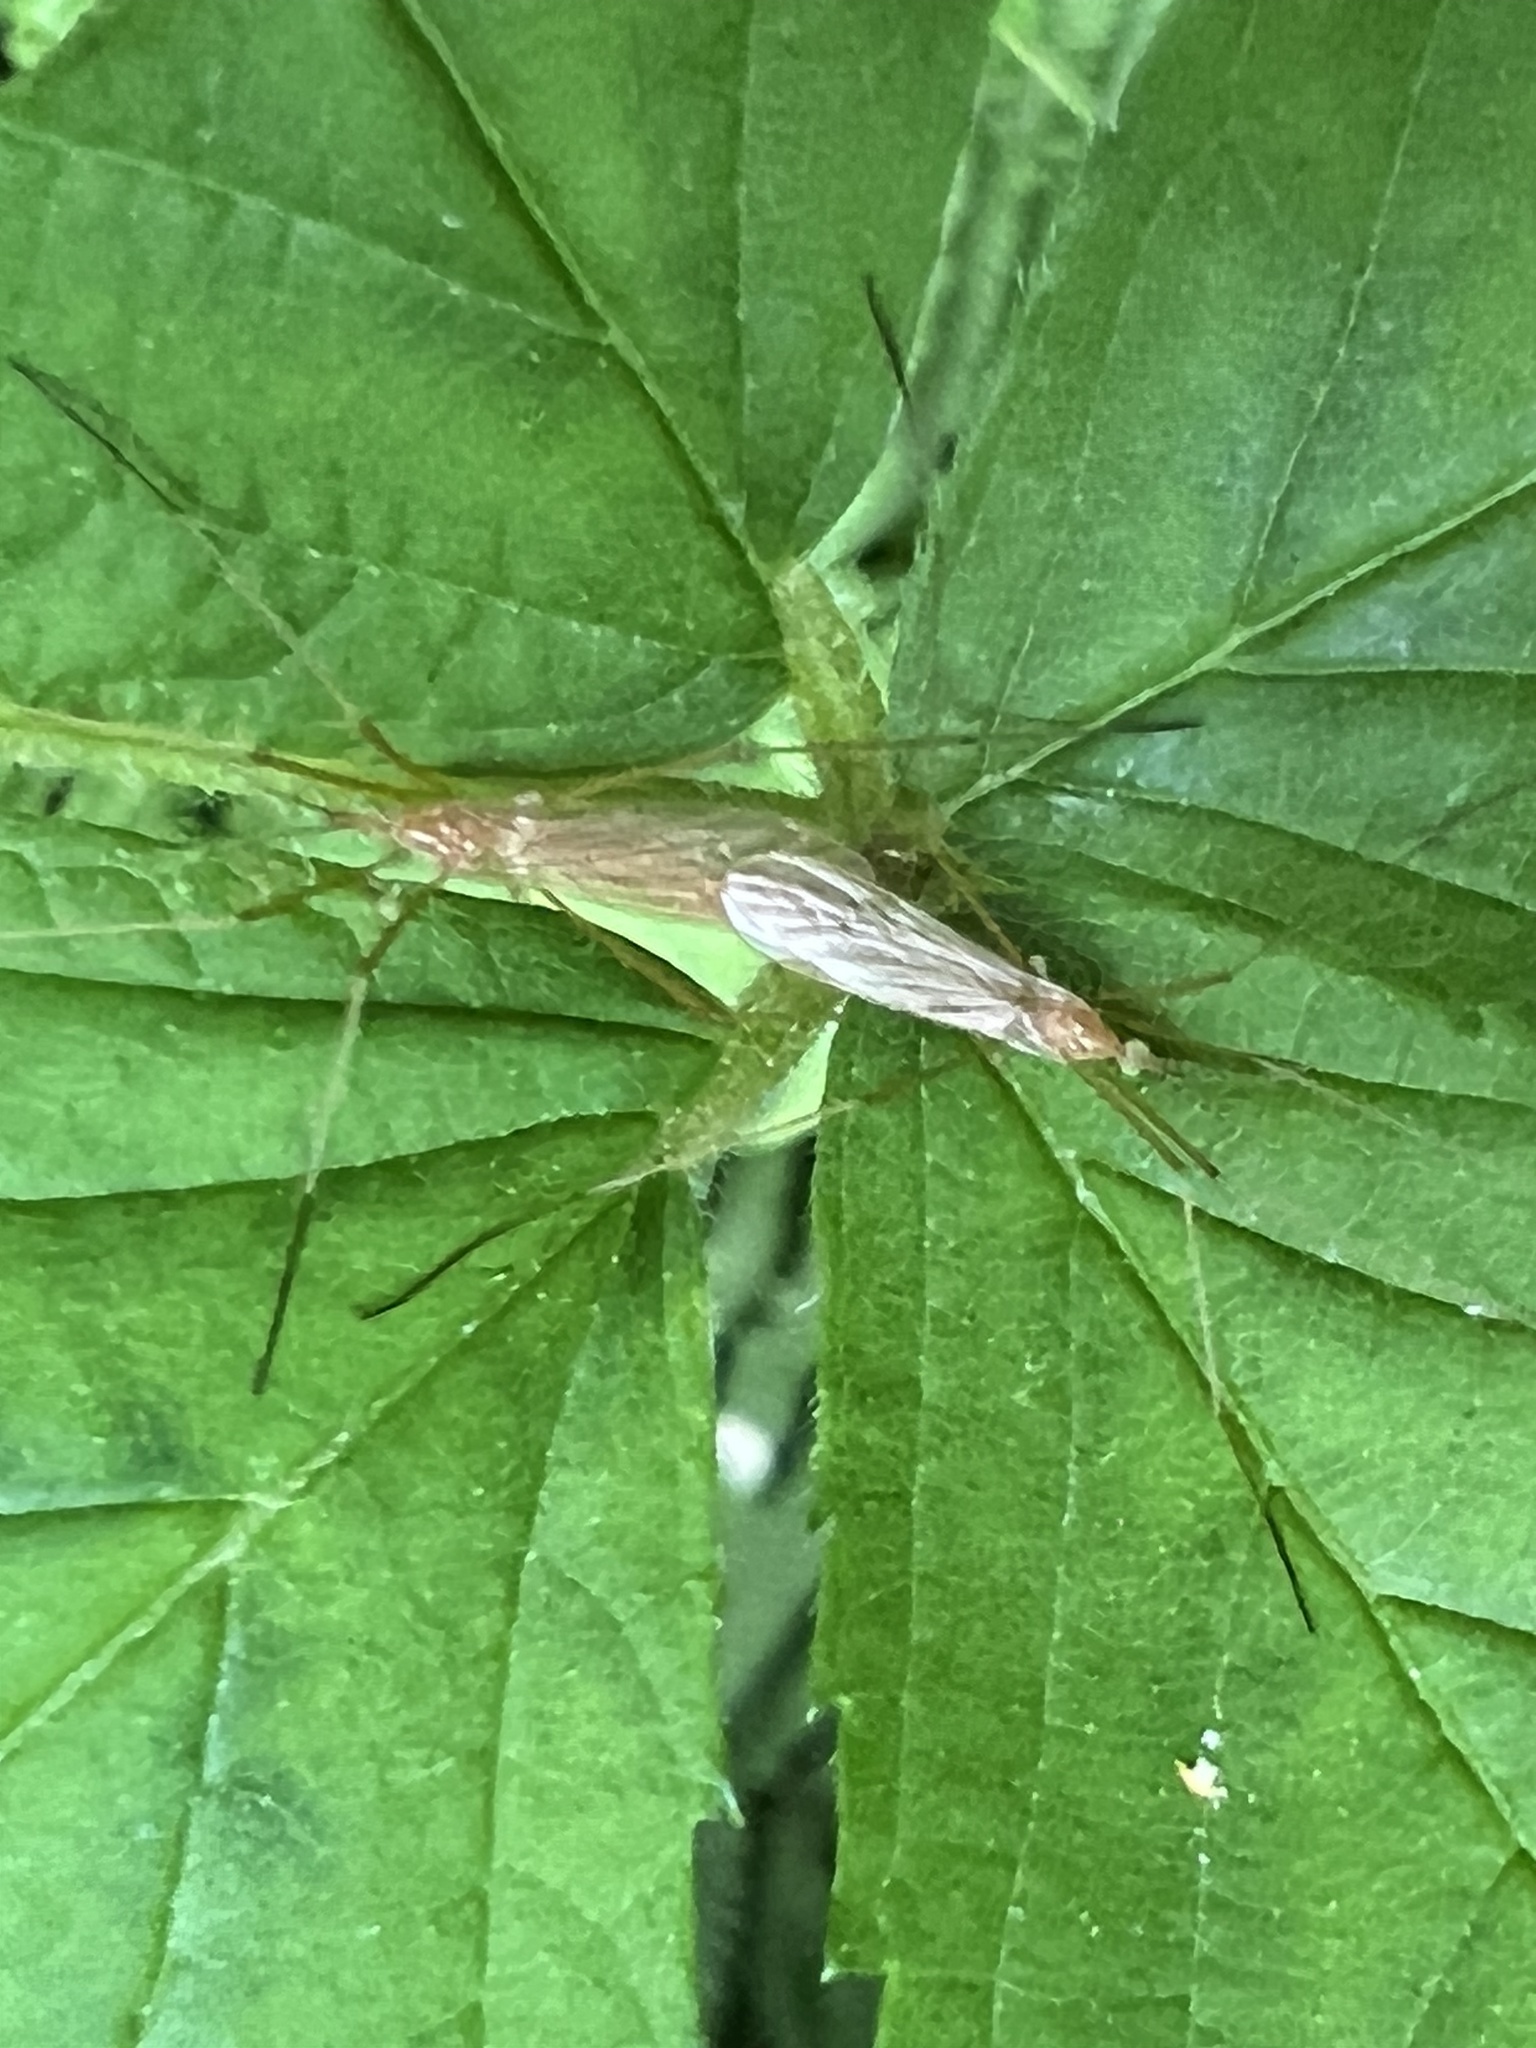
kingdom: Animalia
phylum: Arthropoda
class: Insecta
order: Diptera
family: Limoniidae
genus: Atarba
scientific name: Atarba picticornis
